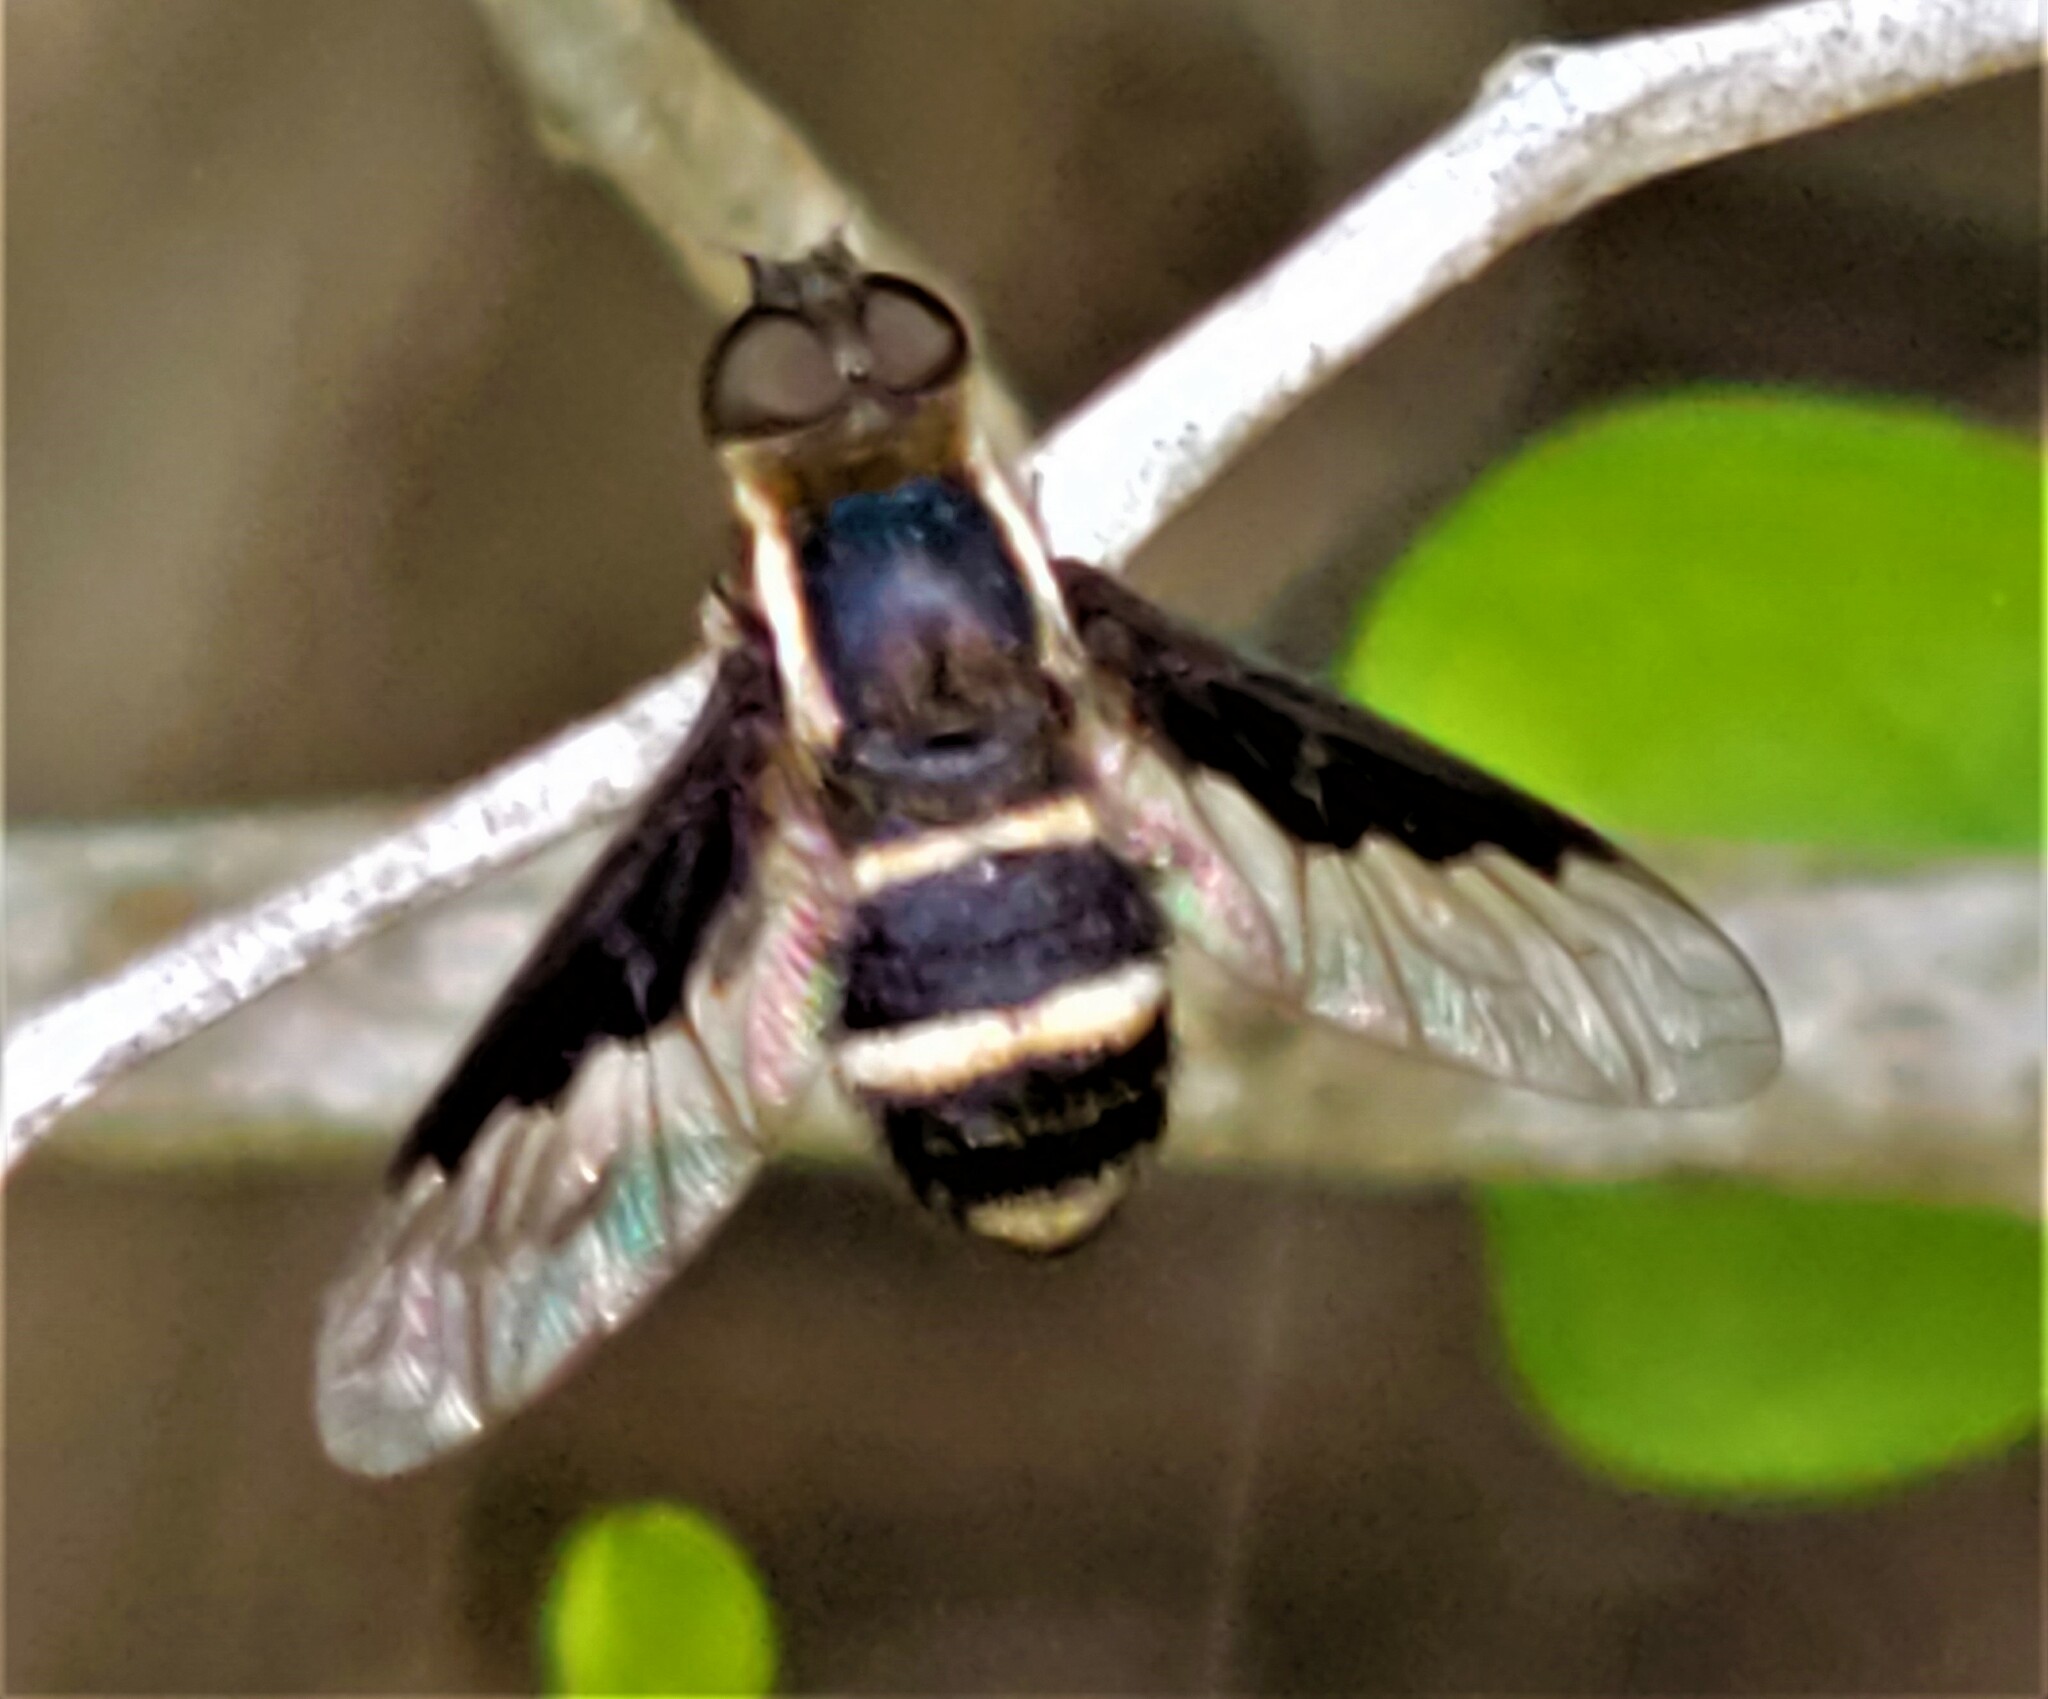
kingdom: Animalia
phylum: Arthropoda
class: Insecta
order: Diptera
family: Bombyliidae
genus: Hemipenthes
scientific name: Hemipenthes lepidotus
